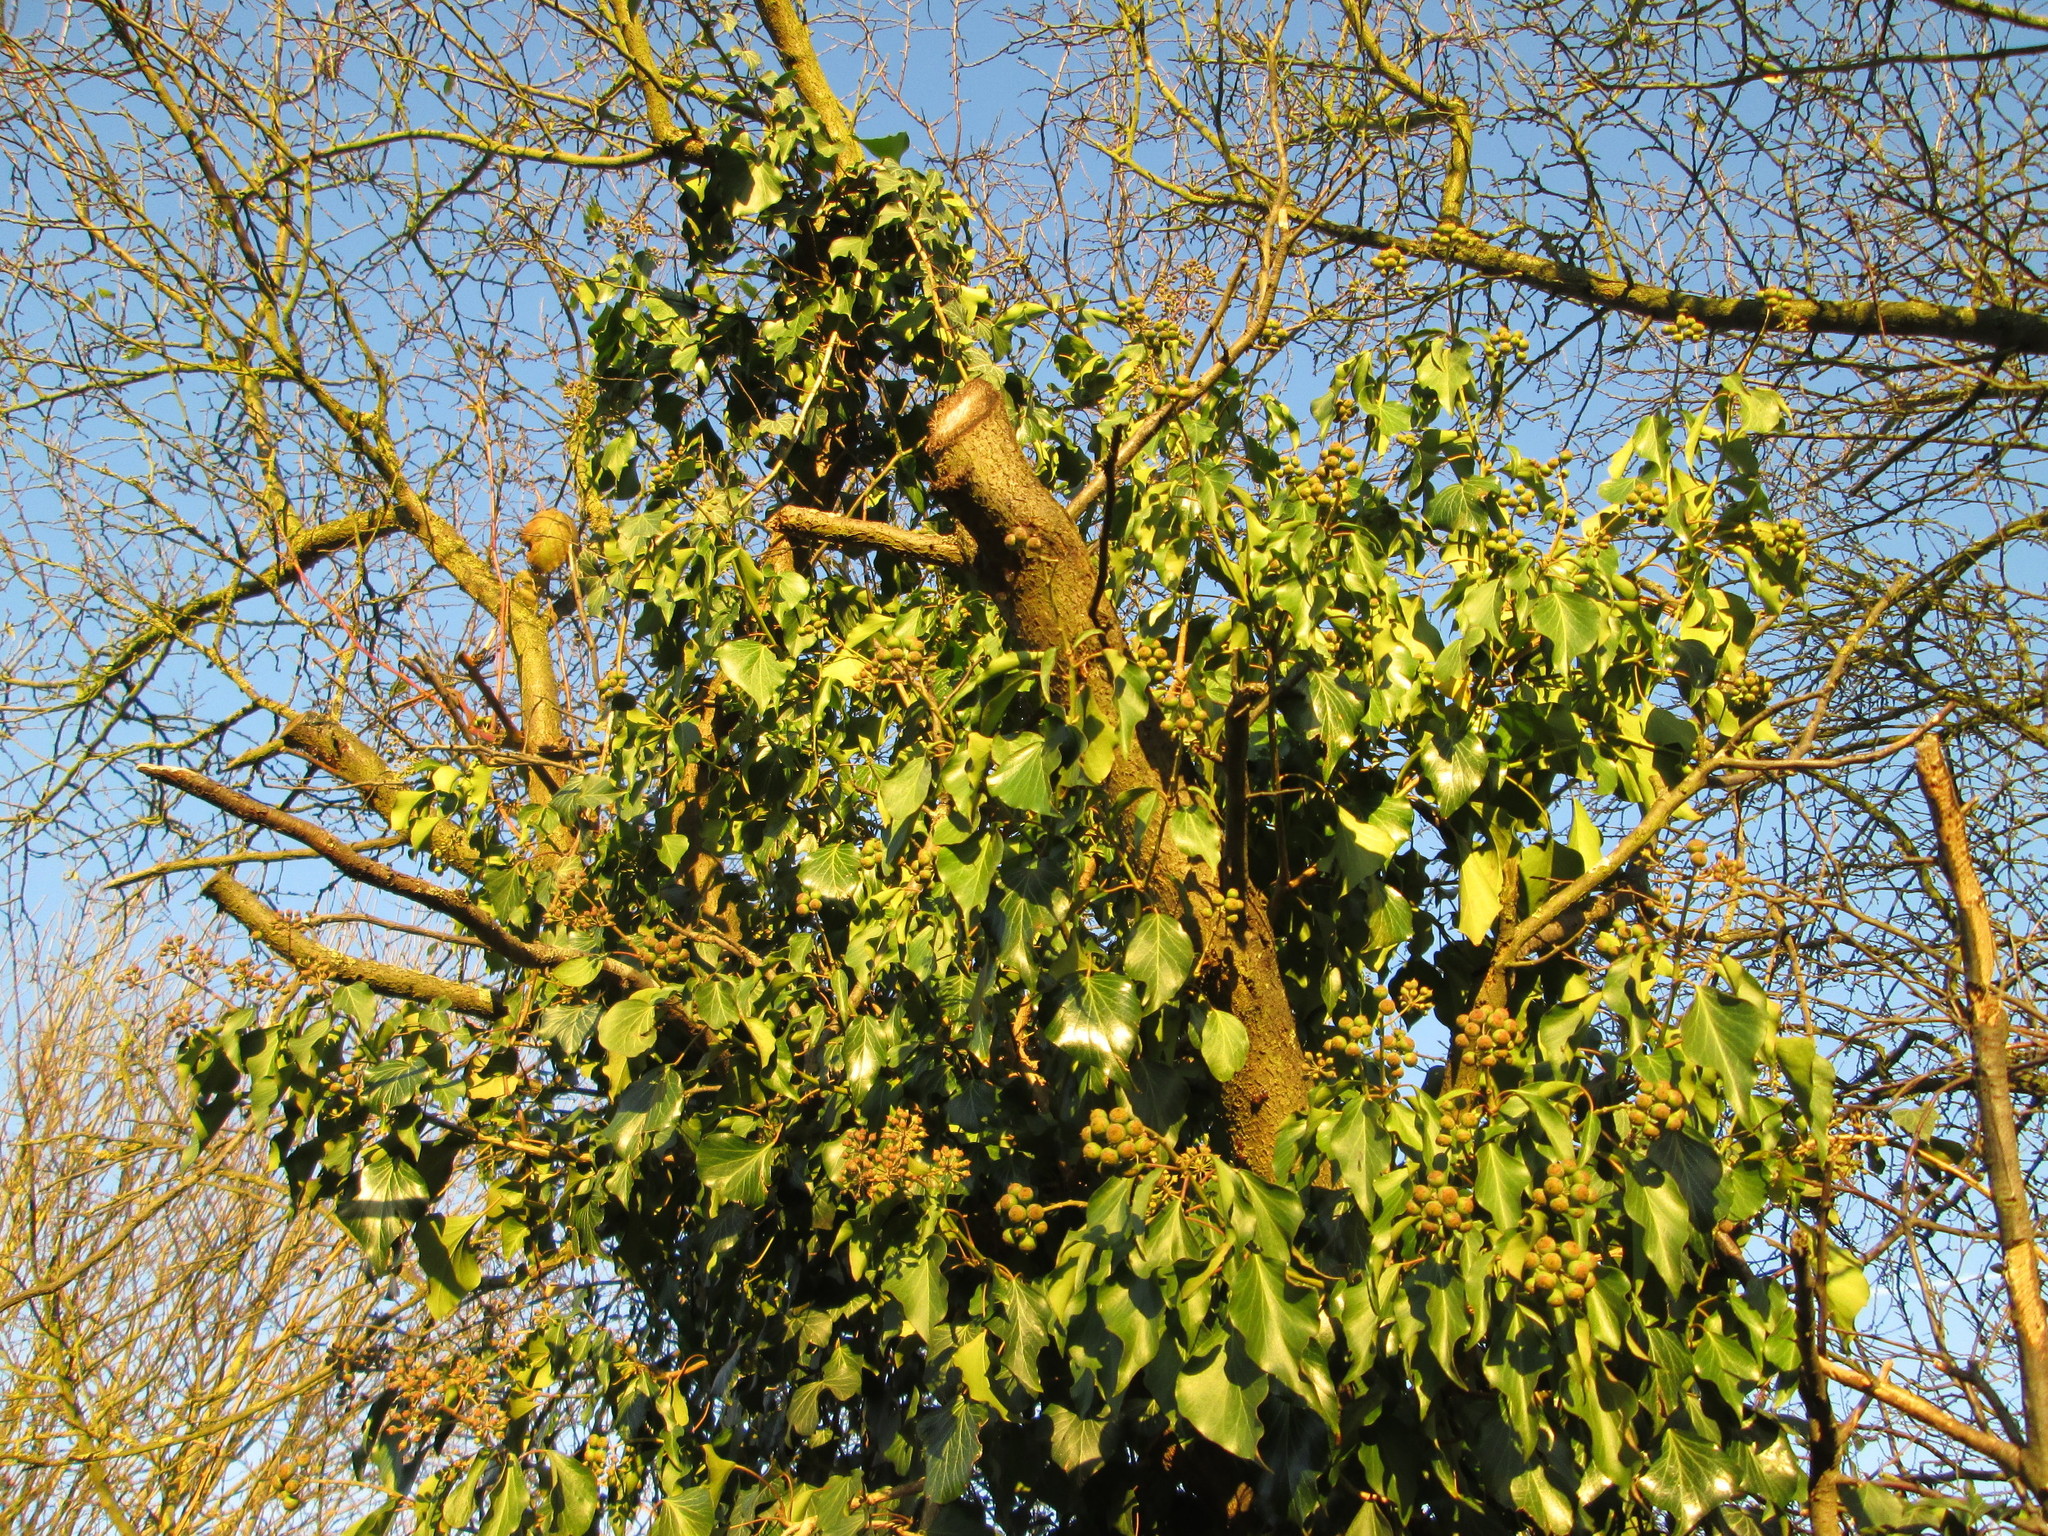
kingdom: Plantae
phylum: Tracheophyta
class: Magnoliopsida
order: Apiales
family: Araliaceae
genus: Hedera
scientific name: Hedera helix
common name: Ivy
